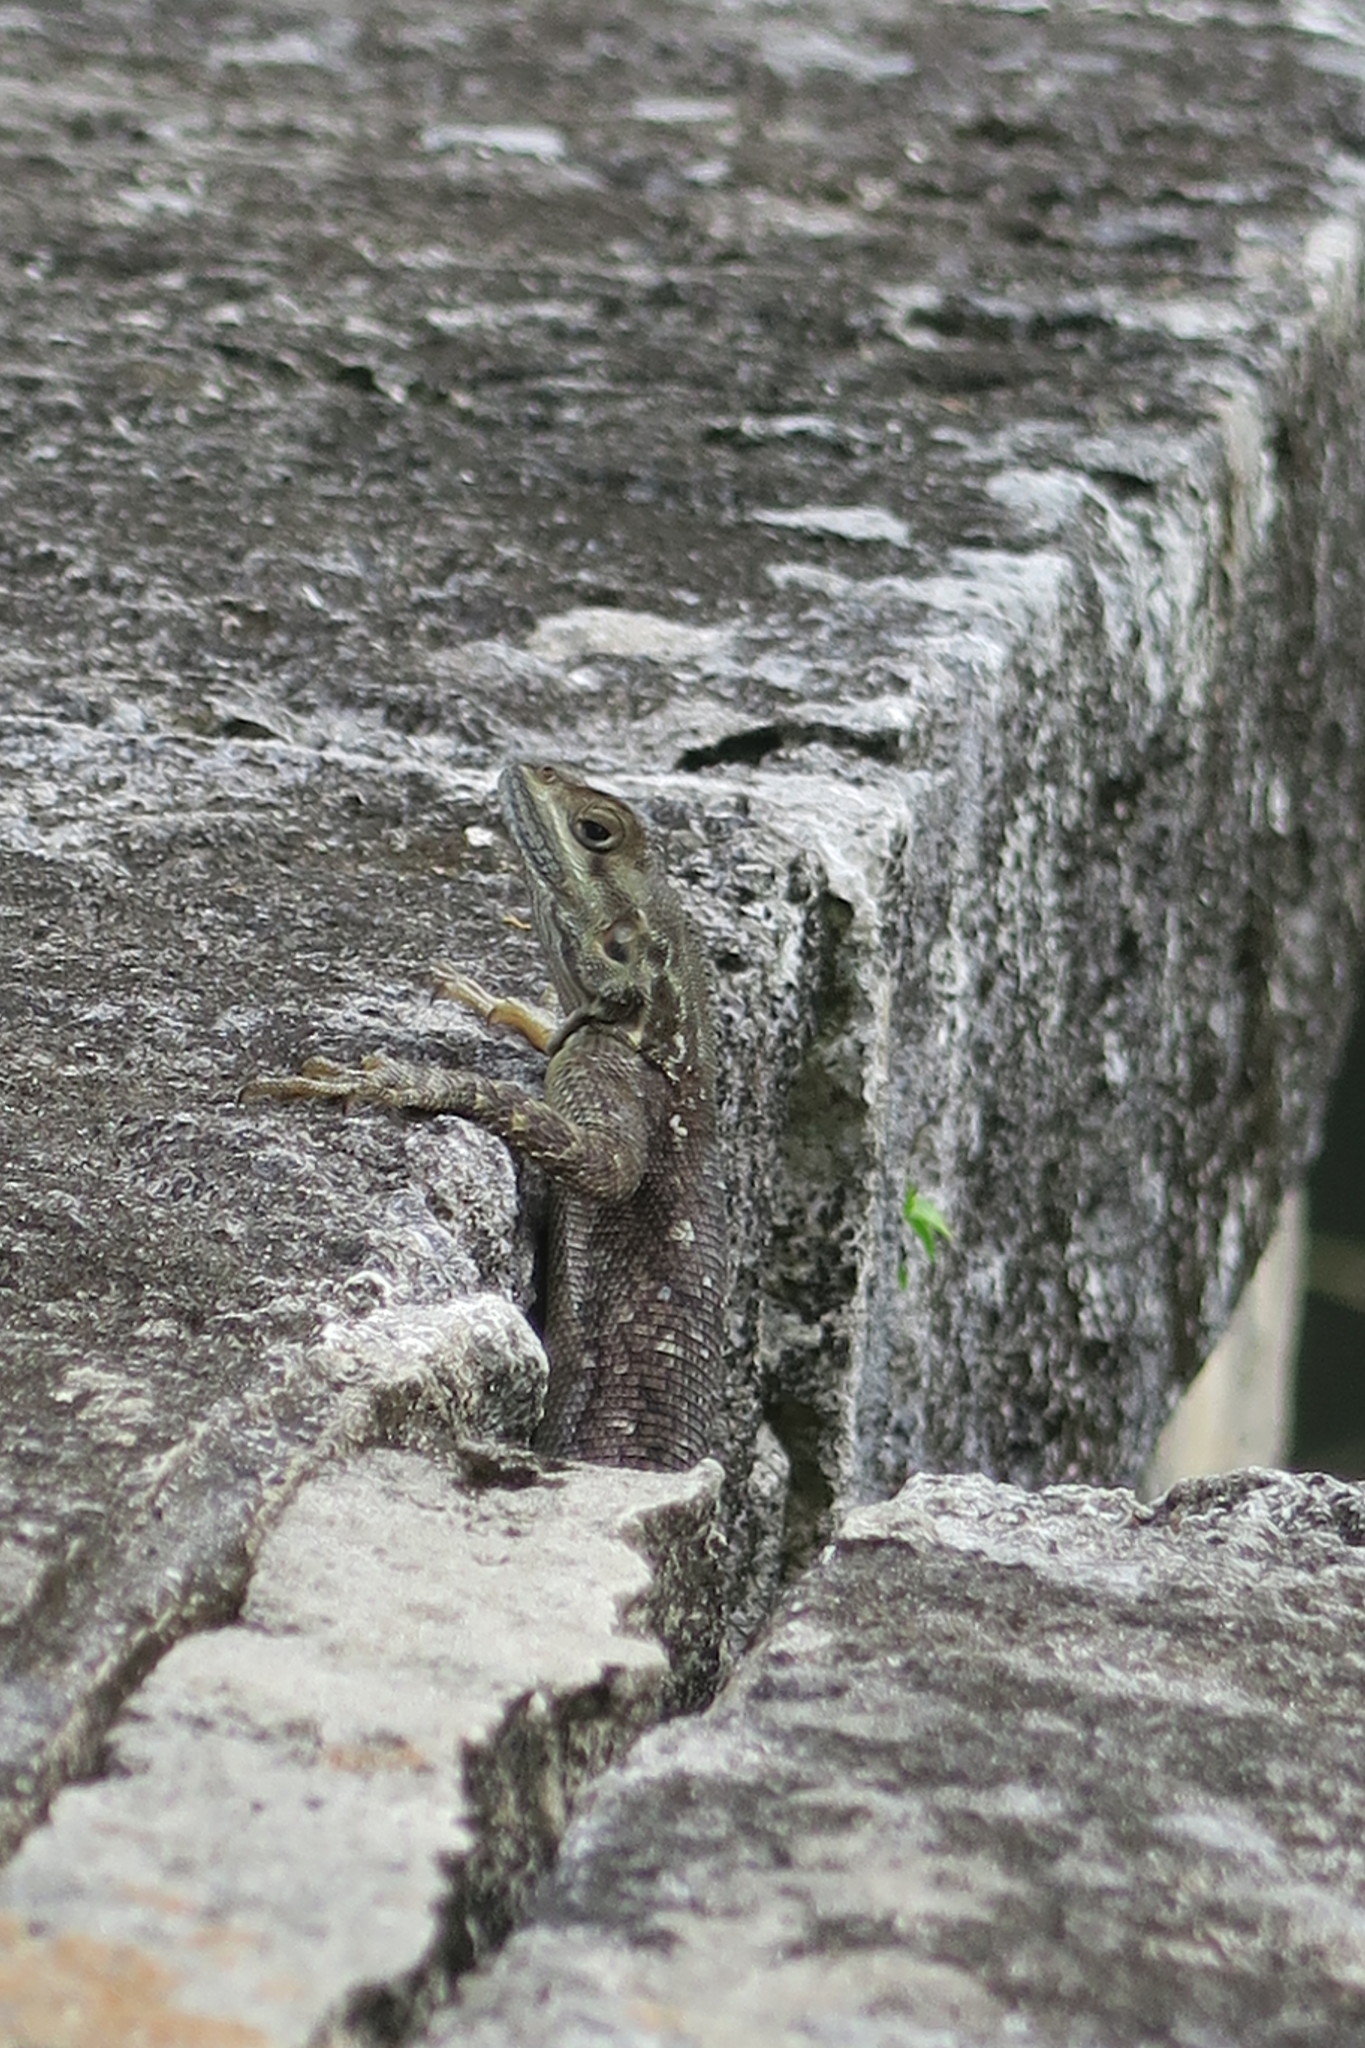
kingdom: Animalia
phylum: Chordata
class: Squamata
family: Agamidae
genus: Agama
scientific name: Agama picticauda
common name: Red-headed agama
